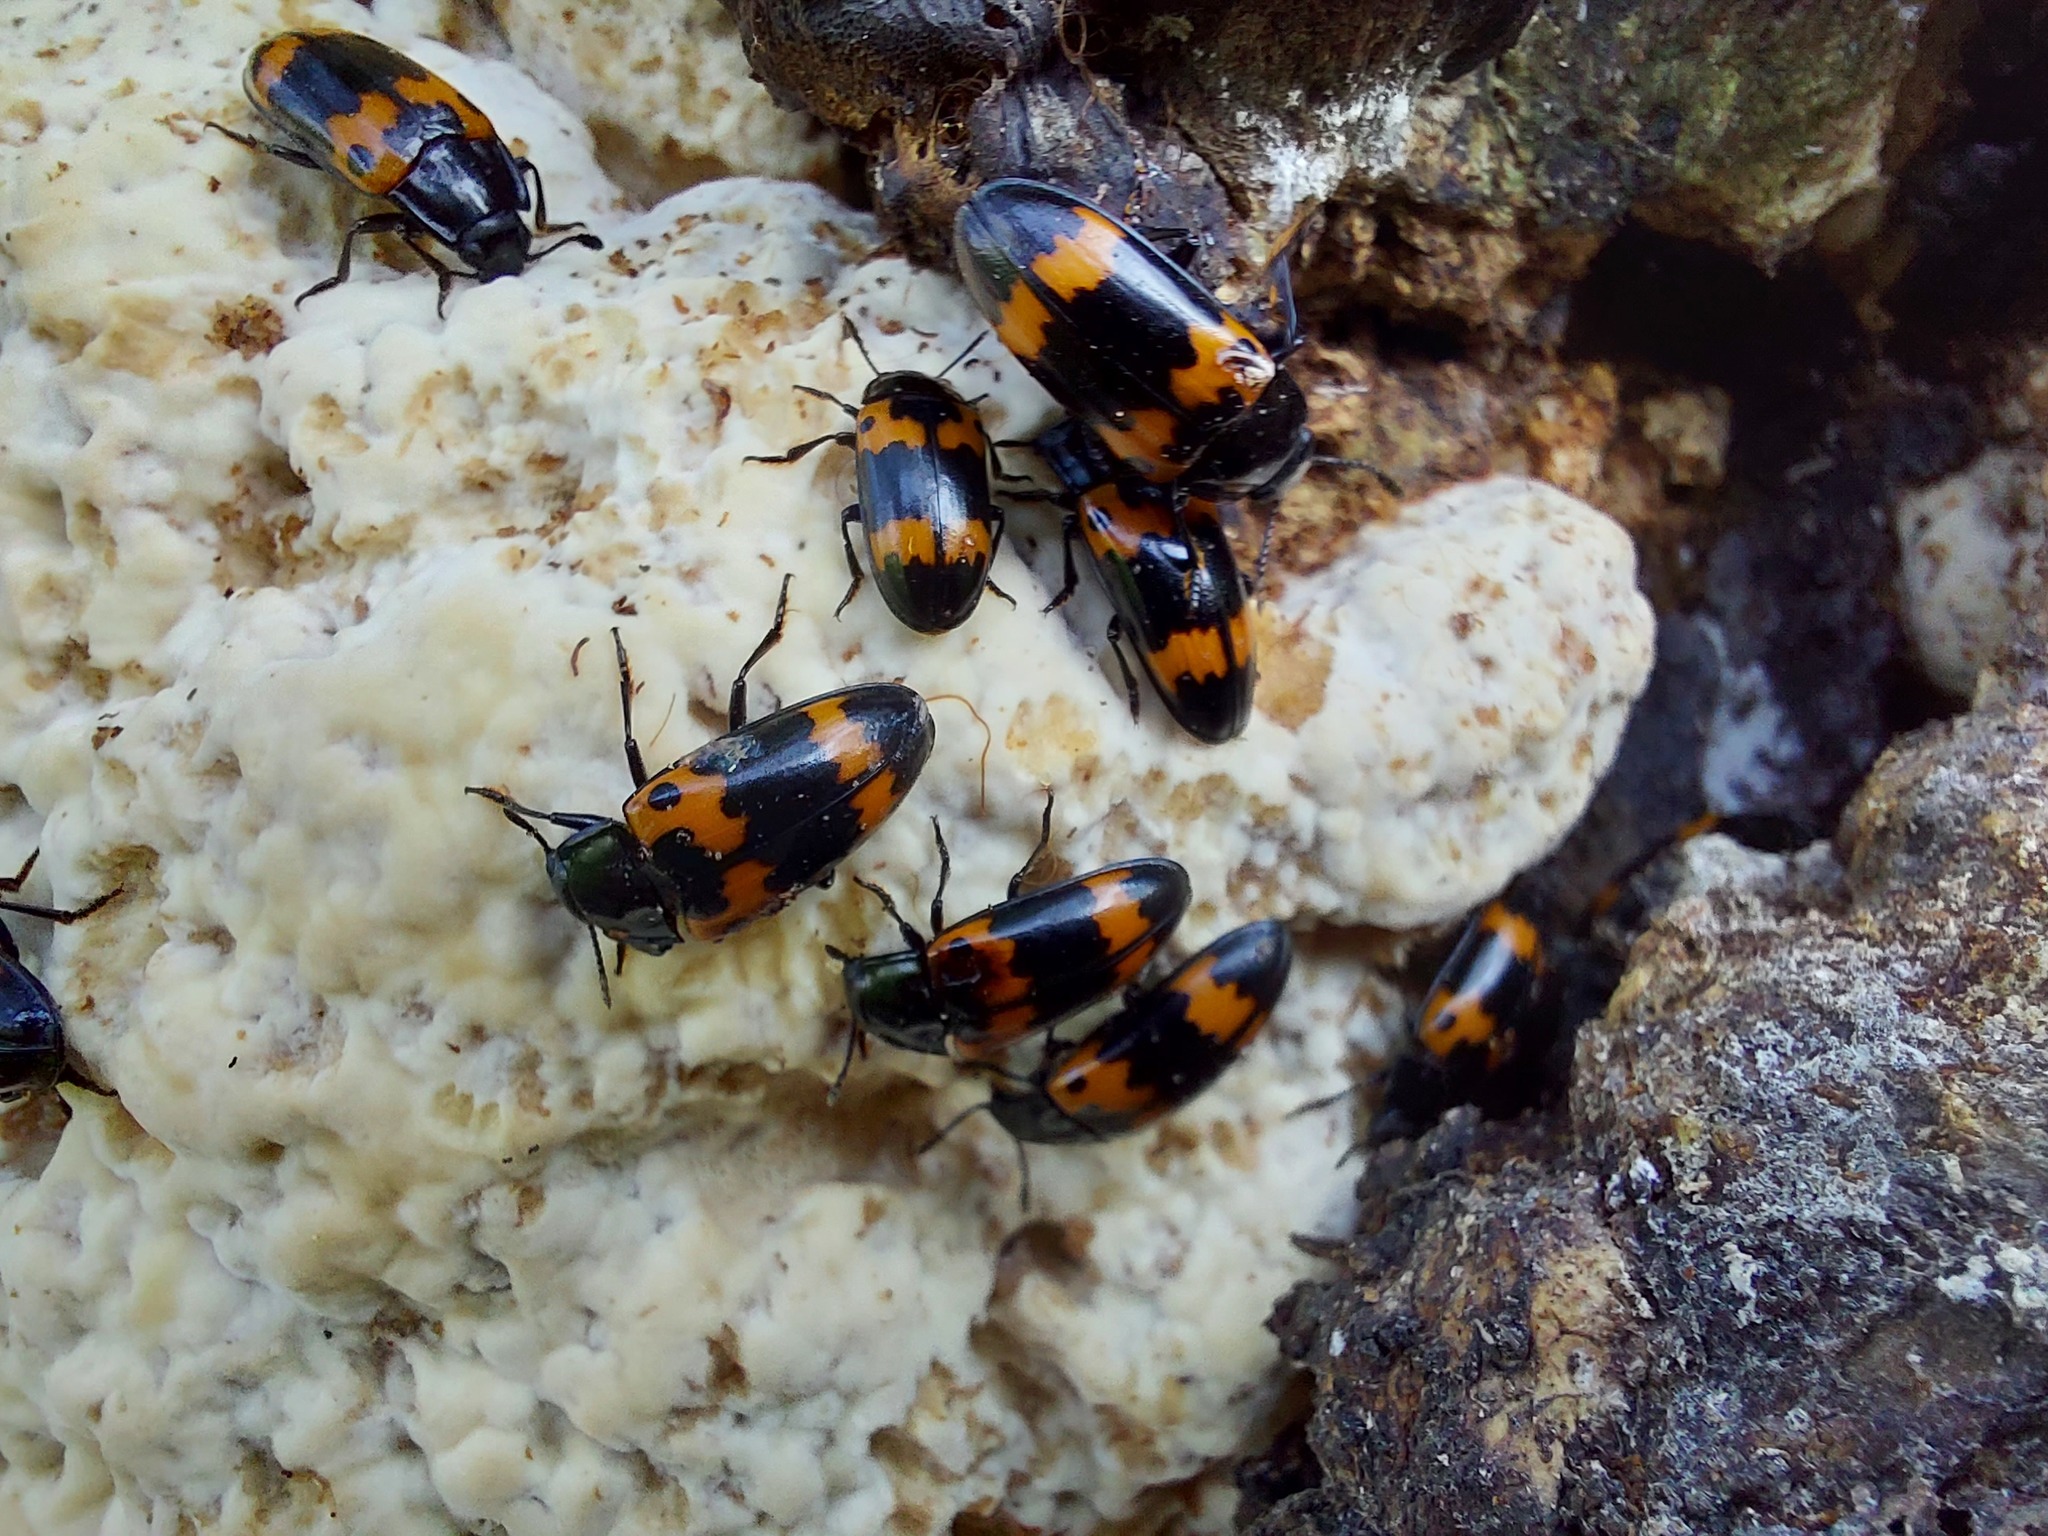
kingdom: Animalia
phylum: Arthropoda
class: Insecta
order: Coleoptera
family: Erotylidae
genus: Megalodacne
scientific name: Megalodacne fasciata
